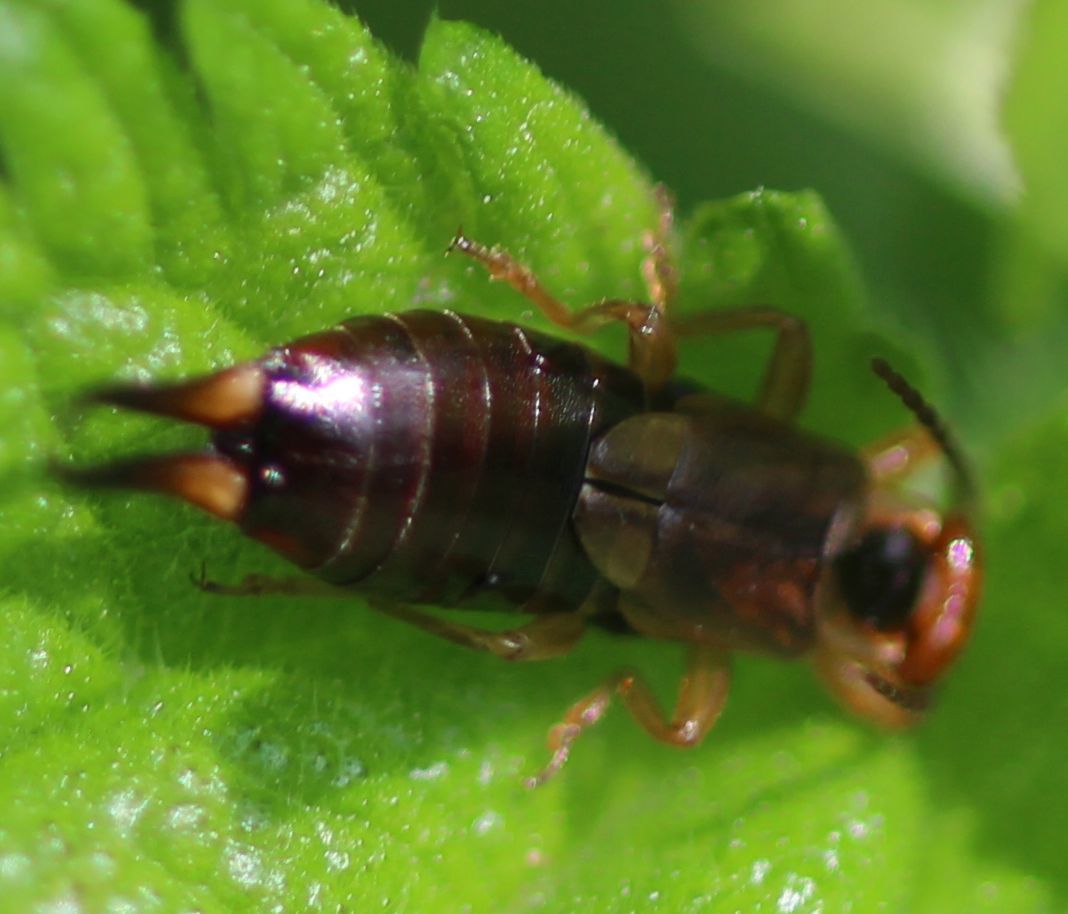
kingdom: Animalia
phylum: Arthropoda
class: Insecta
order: Dermaptera
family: Forficulidae
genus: Forficula
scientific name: Forficula
